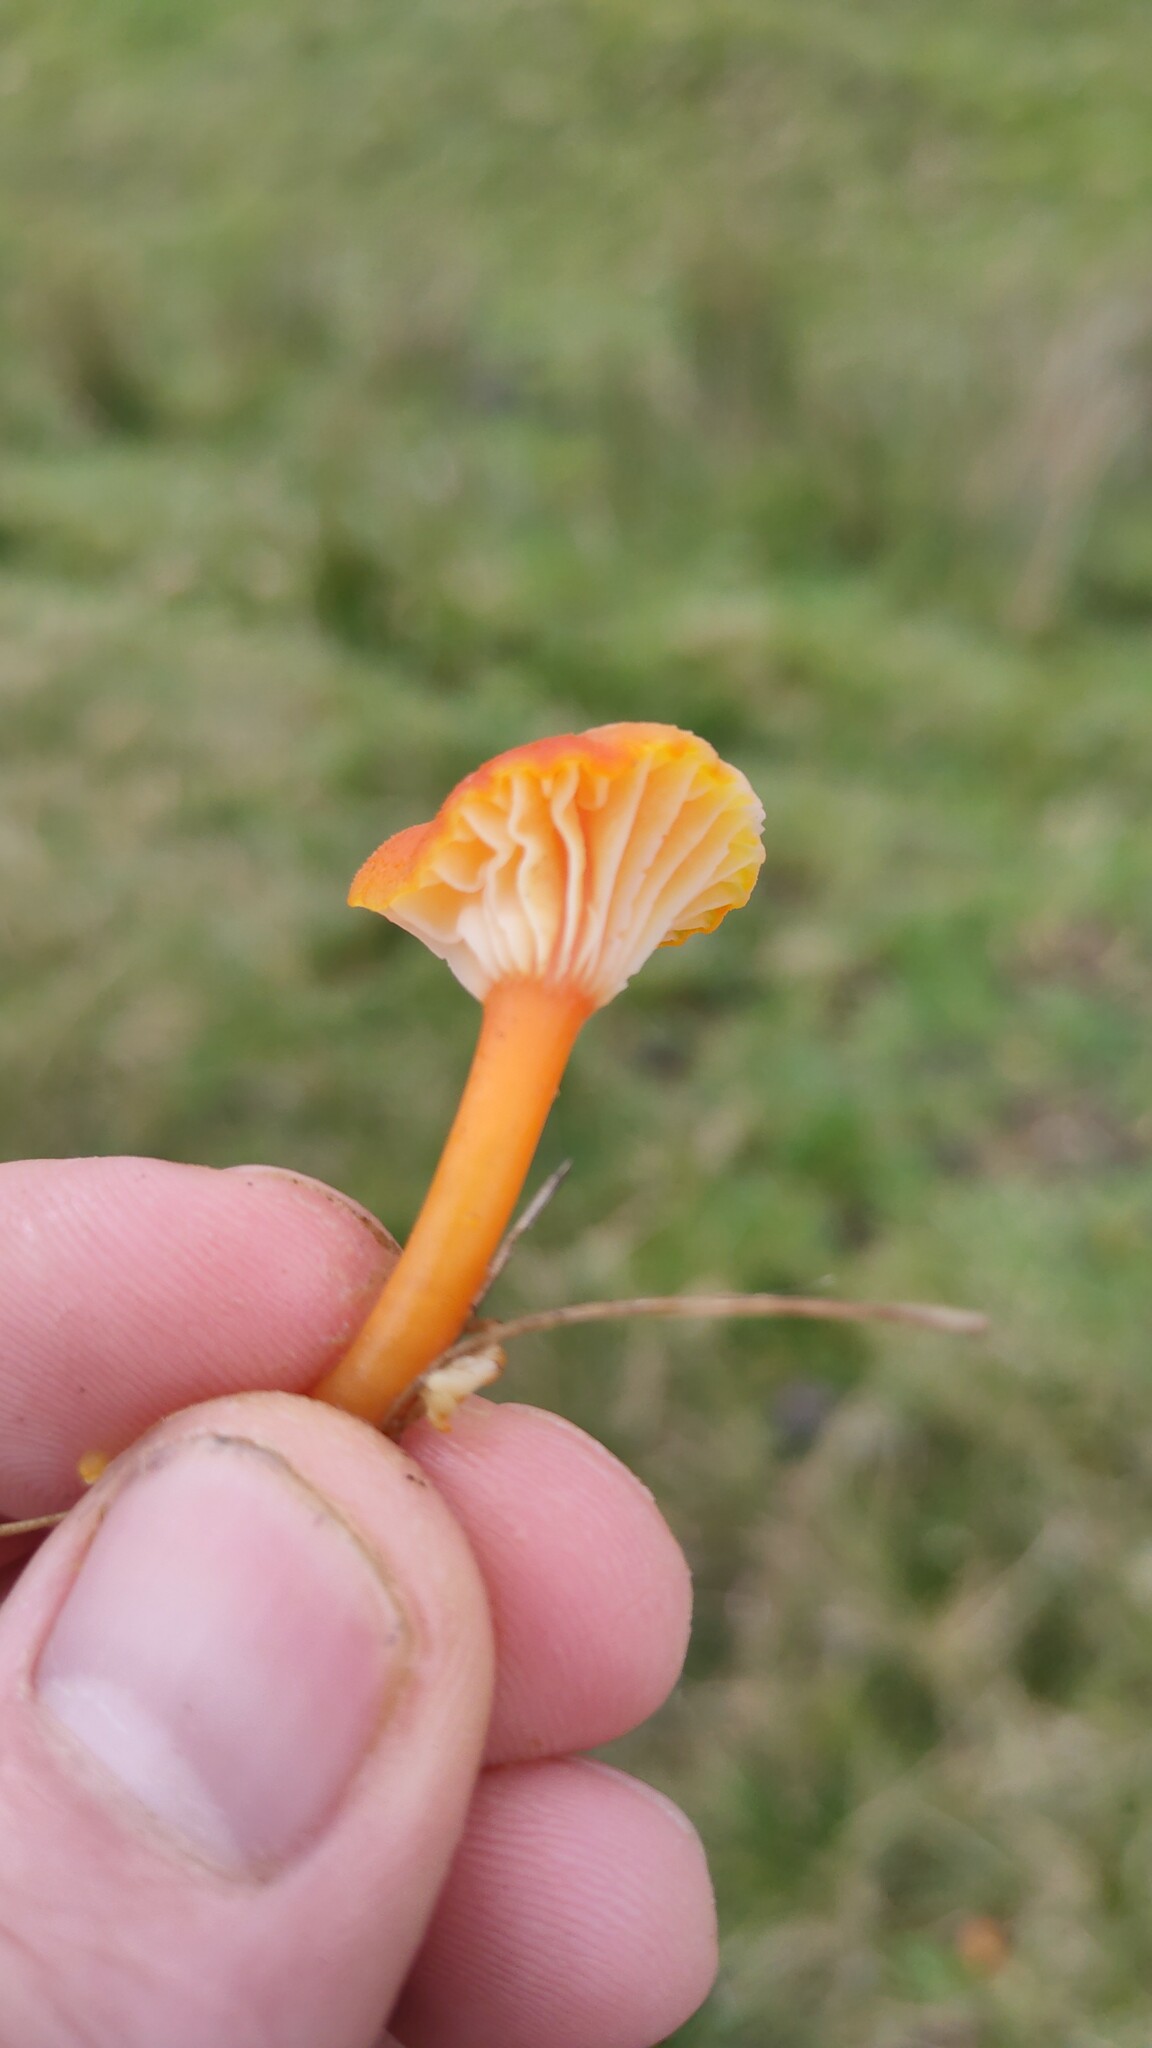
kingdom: Fungi
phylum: Basidiomycota
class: Agaricomycetes
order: Agaricales
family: Hygrophoraceae
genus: Hygrocybe
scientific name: Hygrocybe lepida
